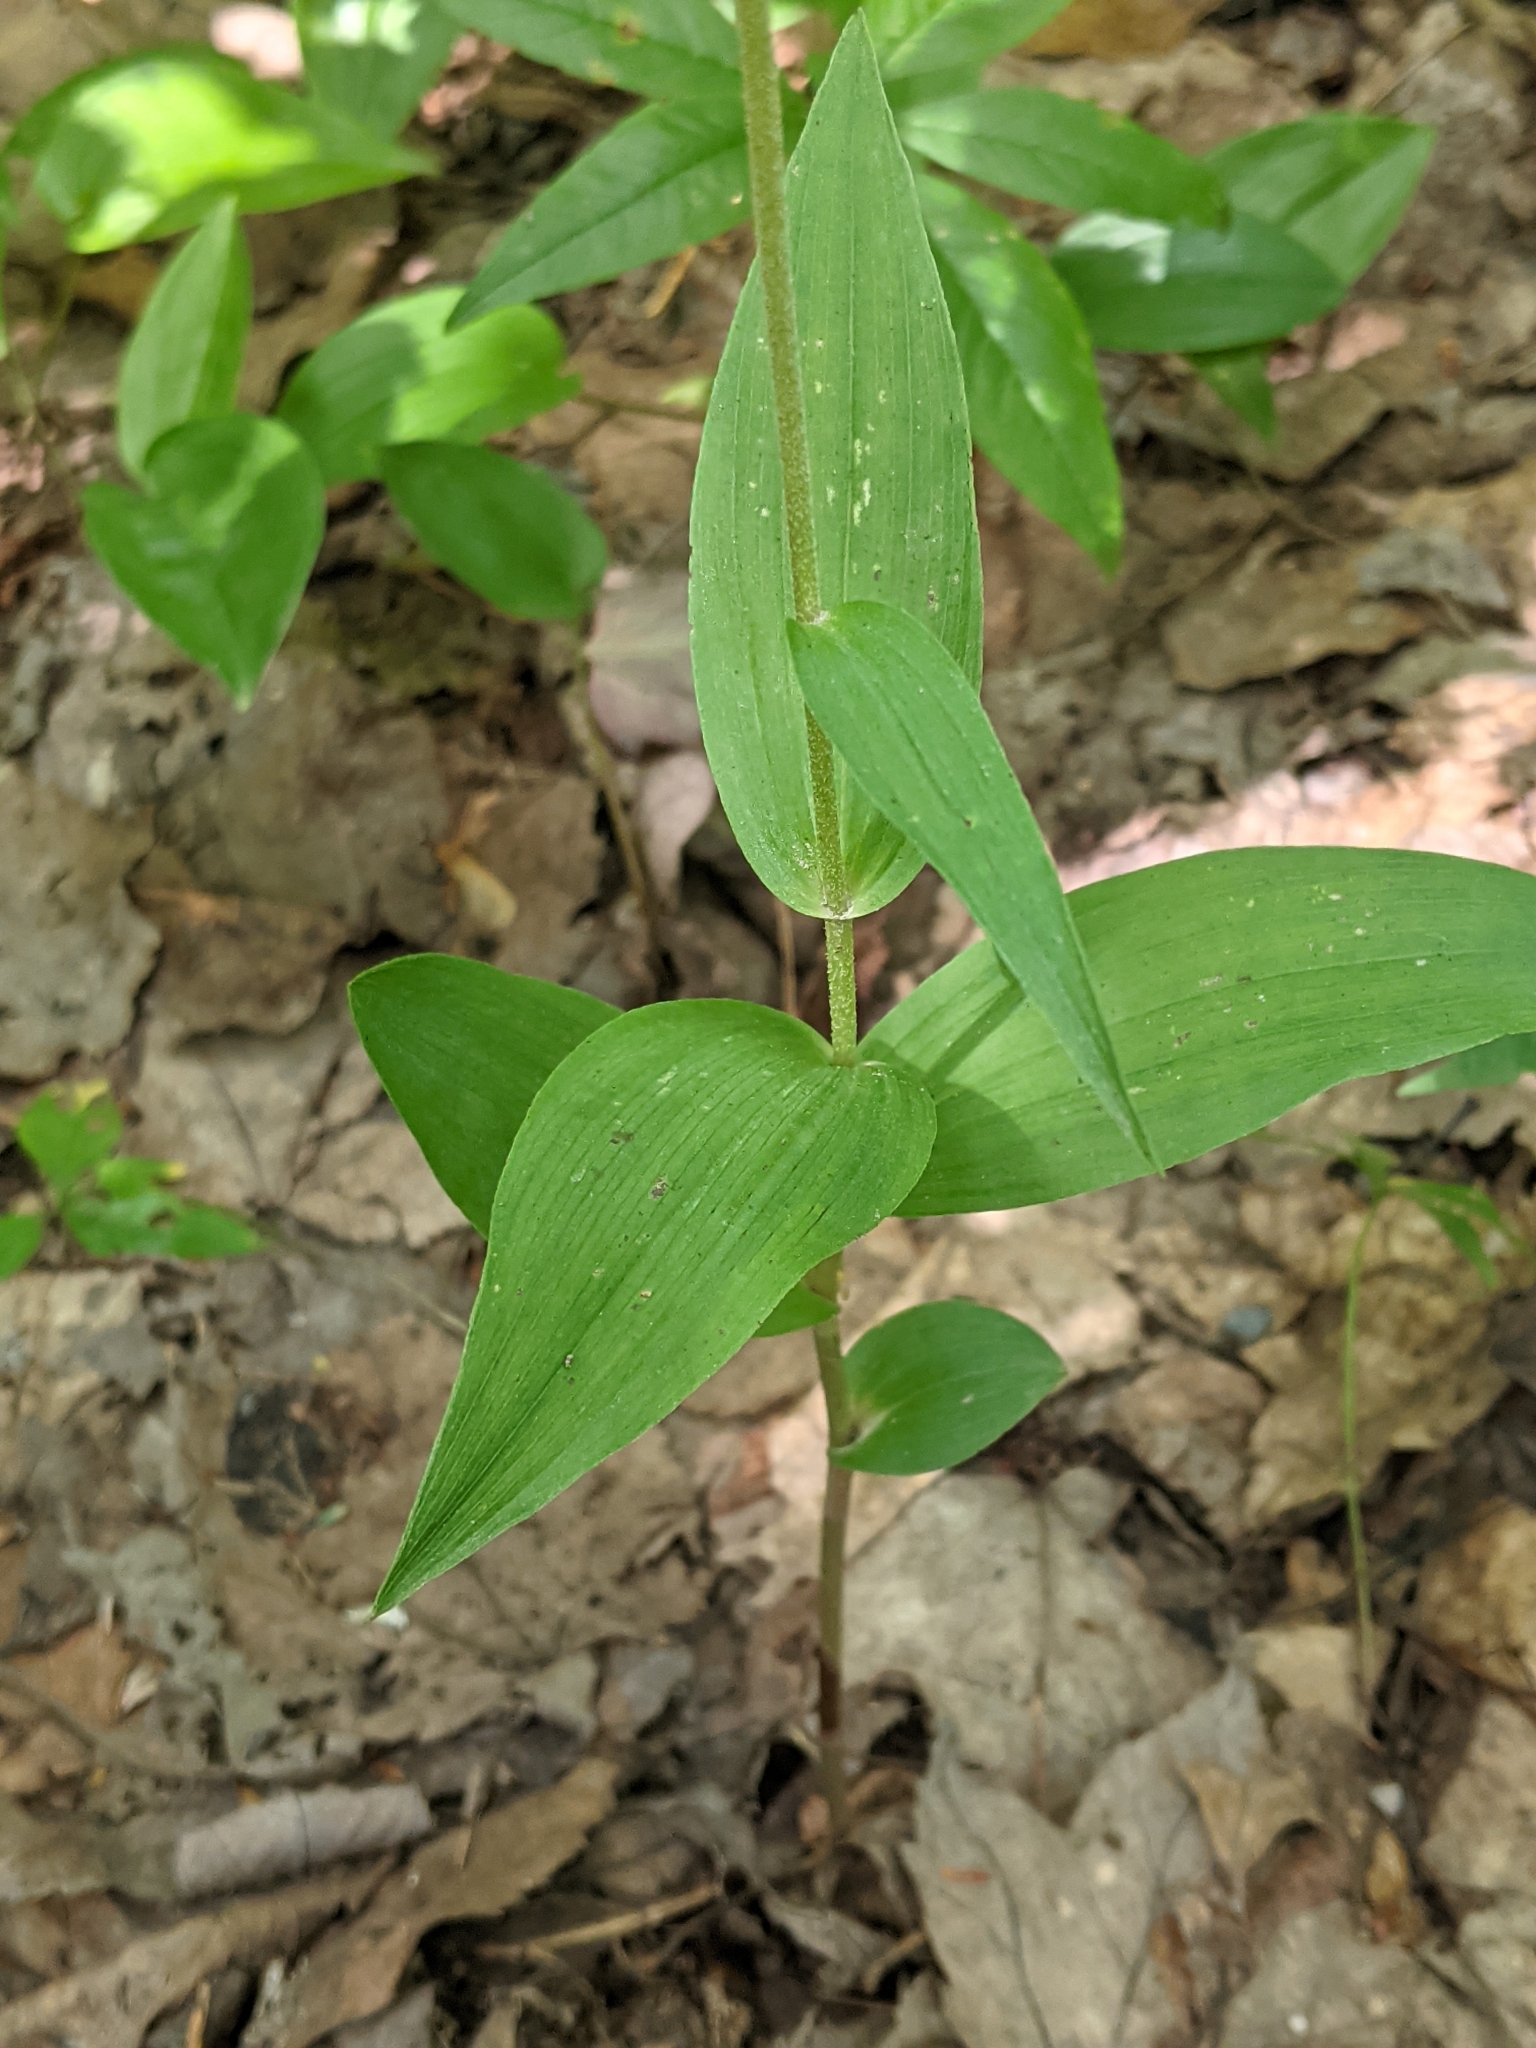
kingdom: Plantae
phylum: Tracheophyta
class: Liliopsida
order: Asparagales
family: Orchidaceae
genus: Epipactis
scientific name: Epipactis helleborine
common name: Broad-leaved helleborine
